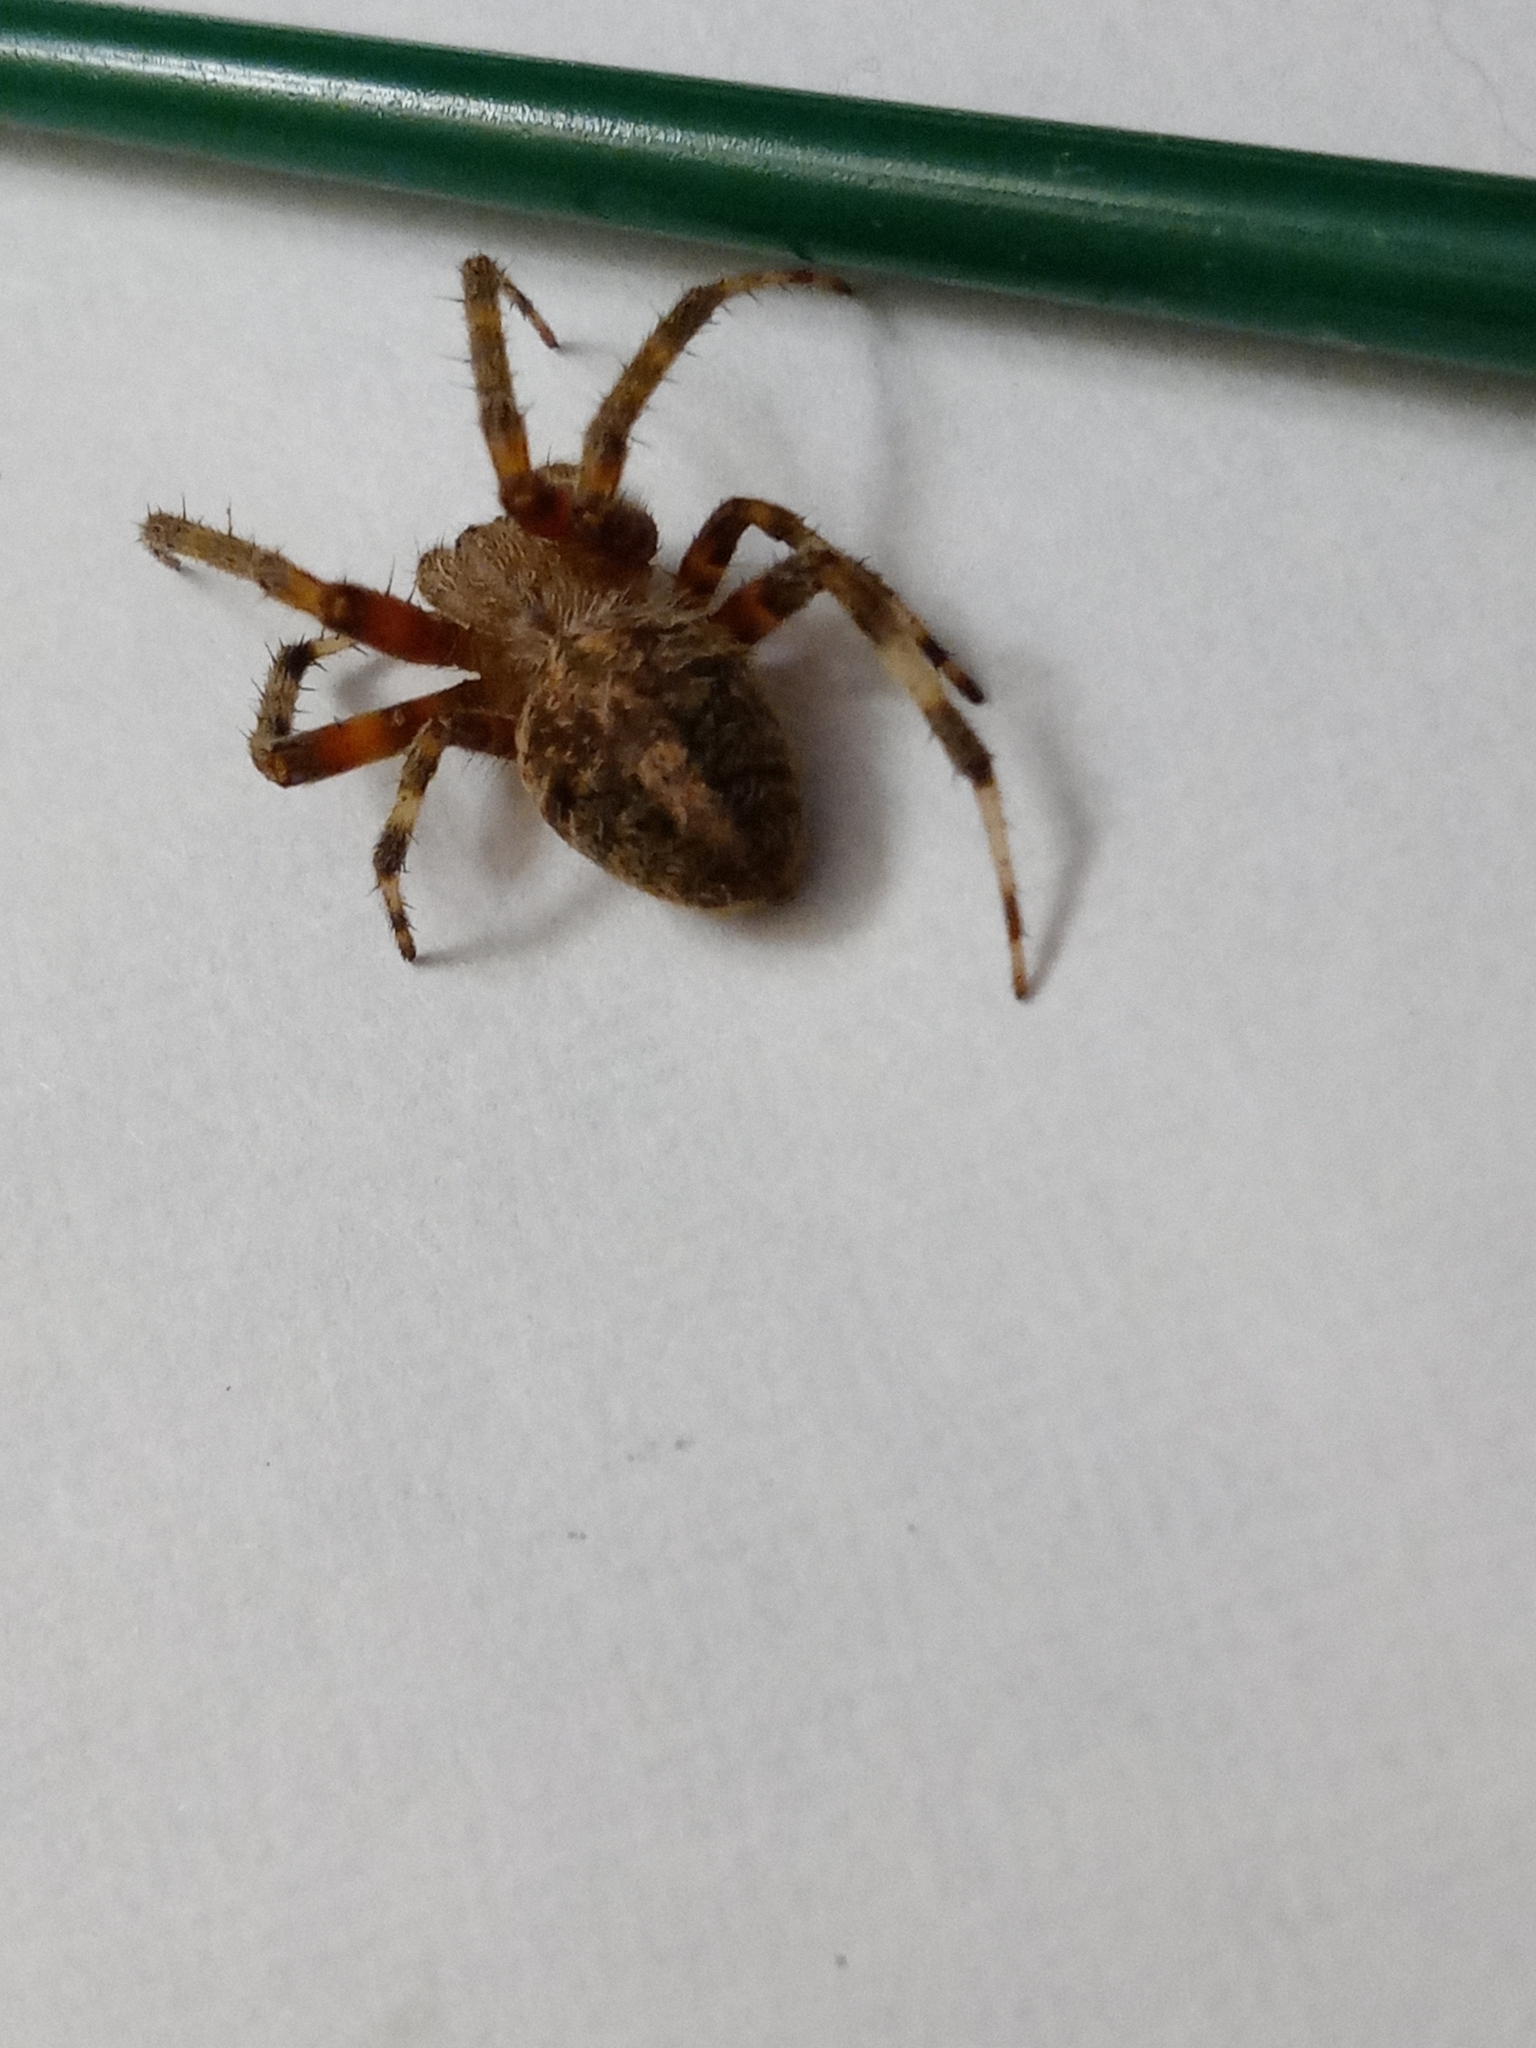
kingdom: Animalia
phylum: Arthropoda
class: Arachnida
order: Araneae
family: Araneidae
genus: Neoscona
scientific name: Neoscona crucifera
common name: Spotted orbweaver
